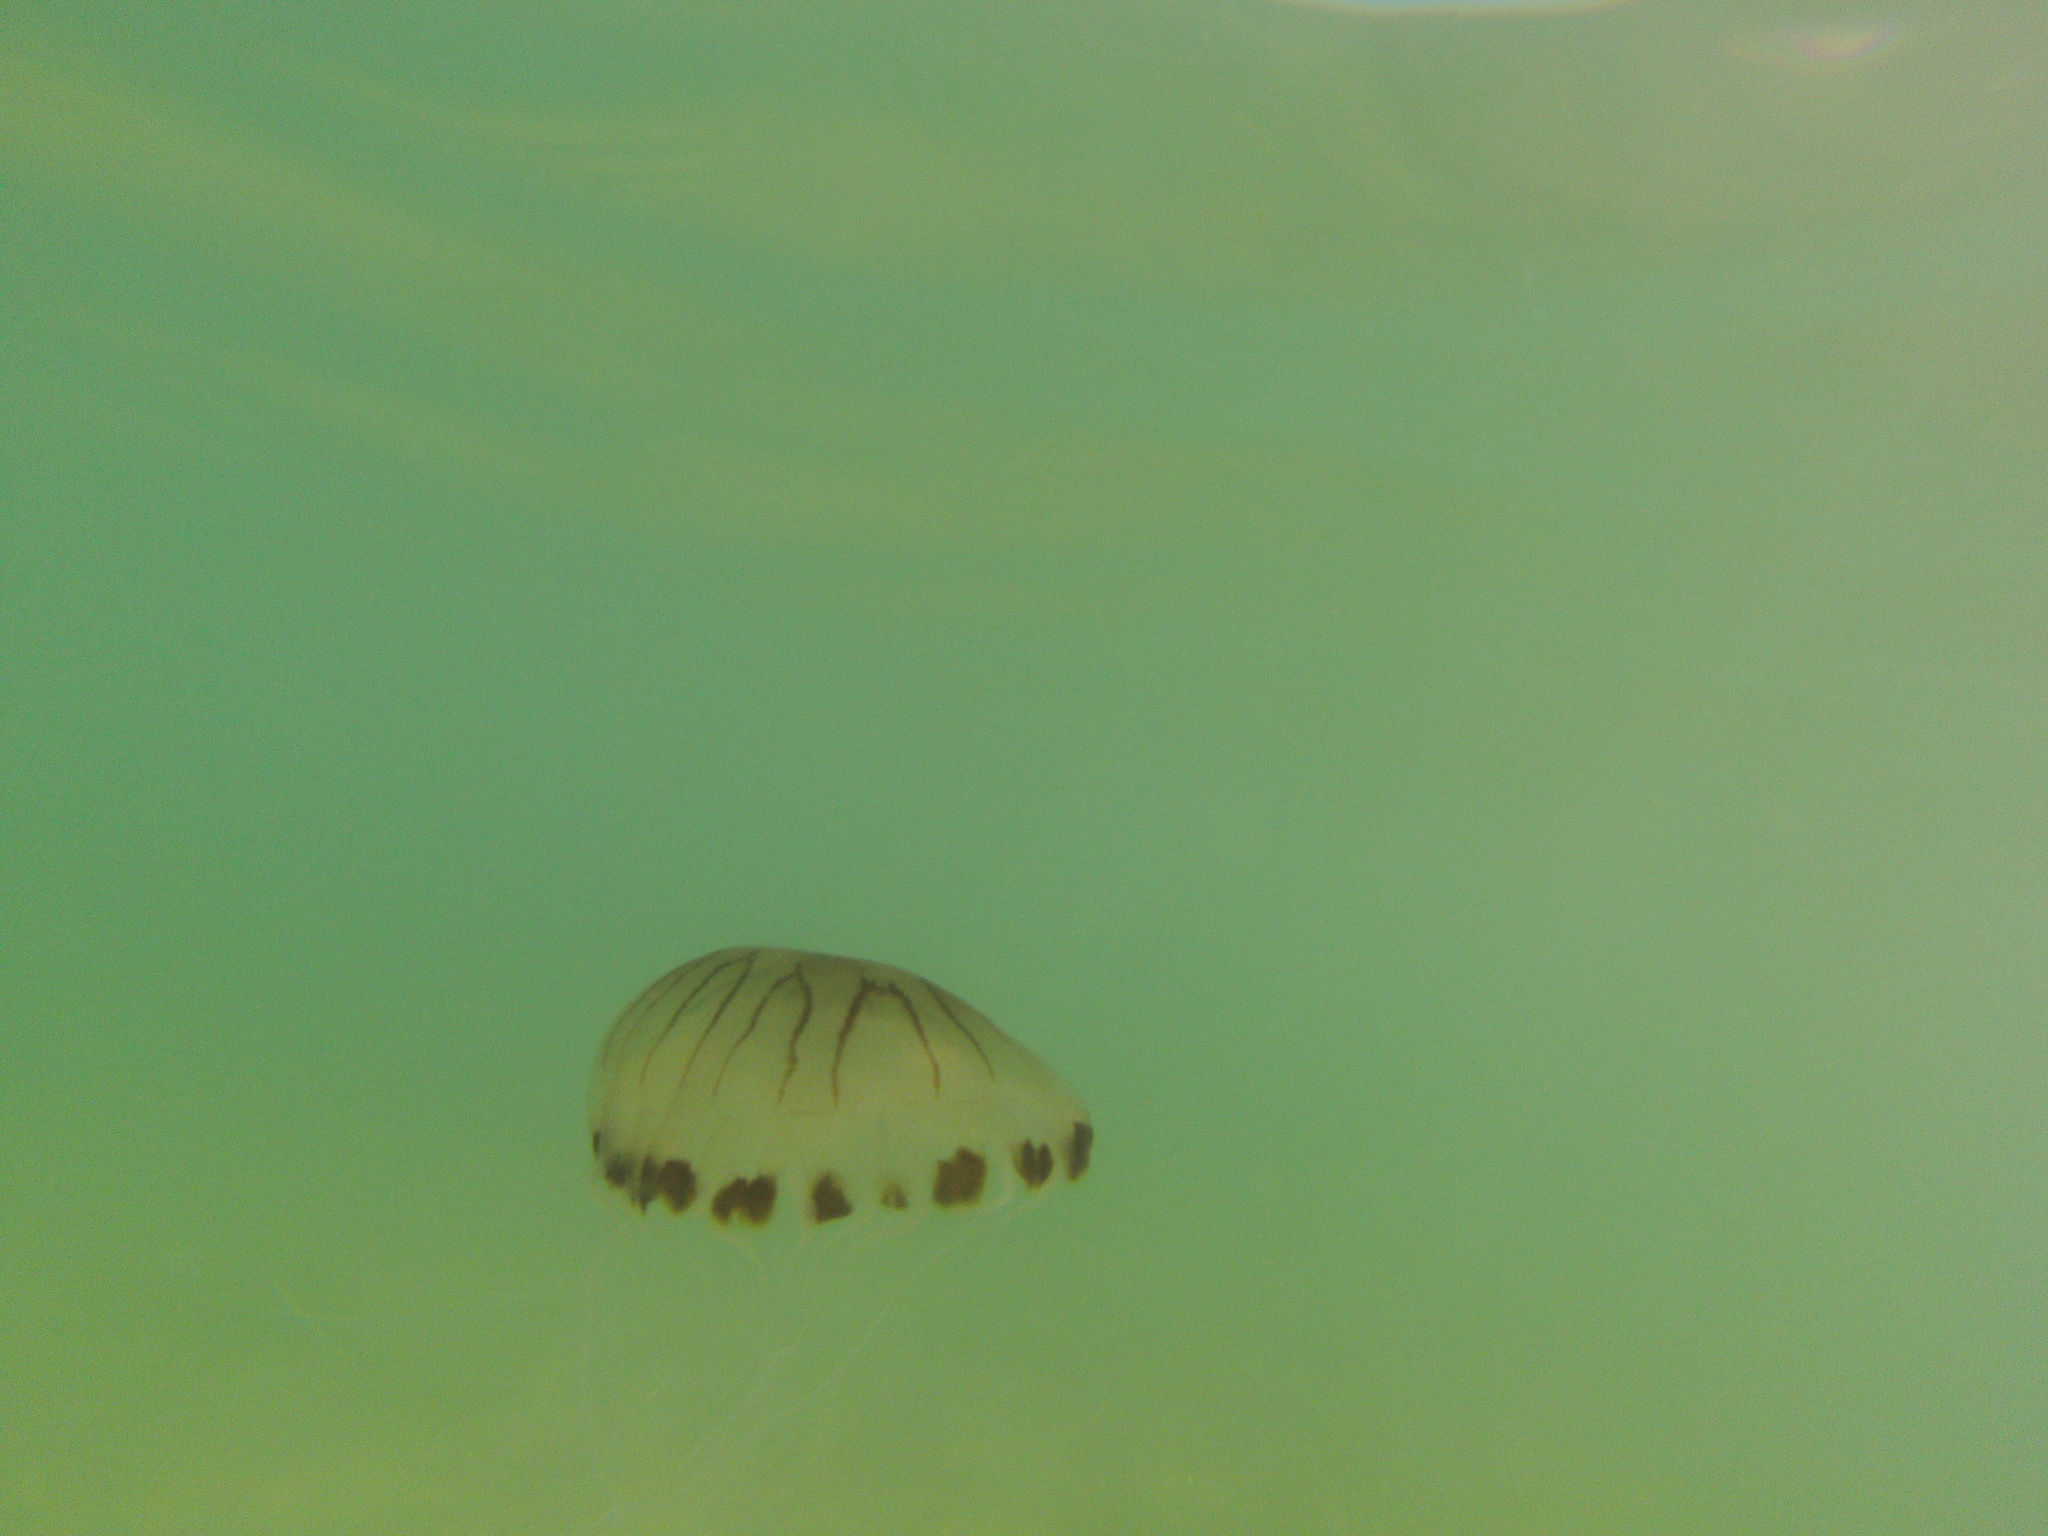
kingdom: Animalia
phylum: Cnidaria
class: Scyphozoa
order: Semaeostomeae
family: Pelagiidae
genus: Chrysaora
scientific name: Chrysaora hysoscella
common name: Compass jellyfish
